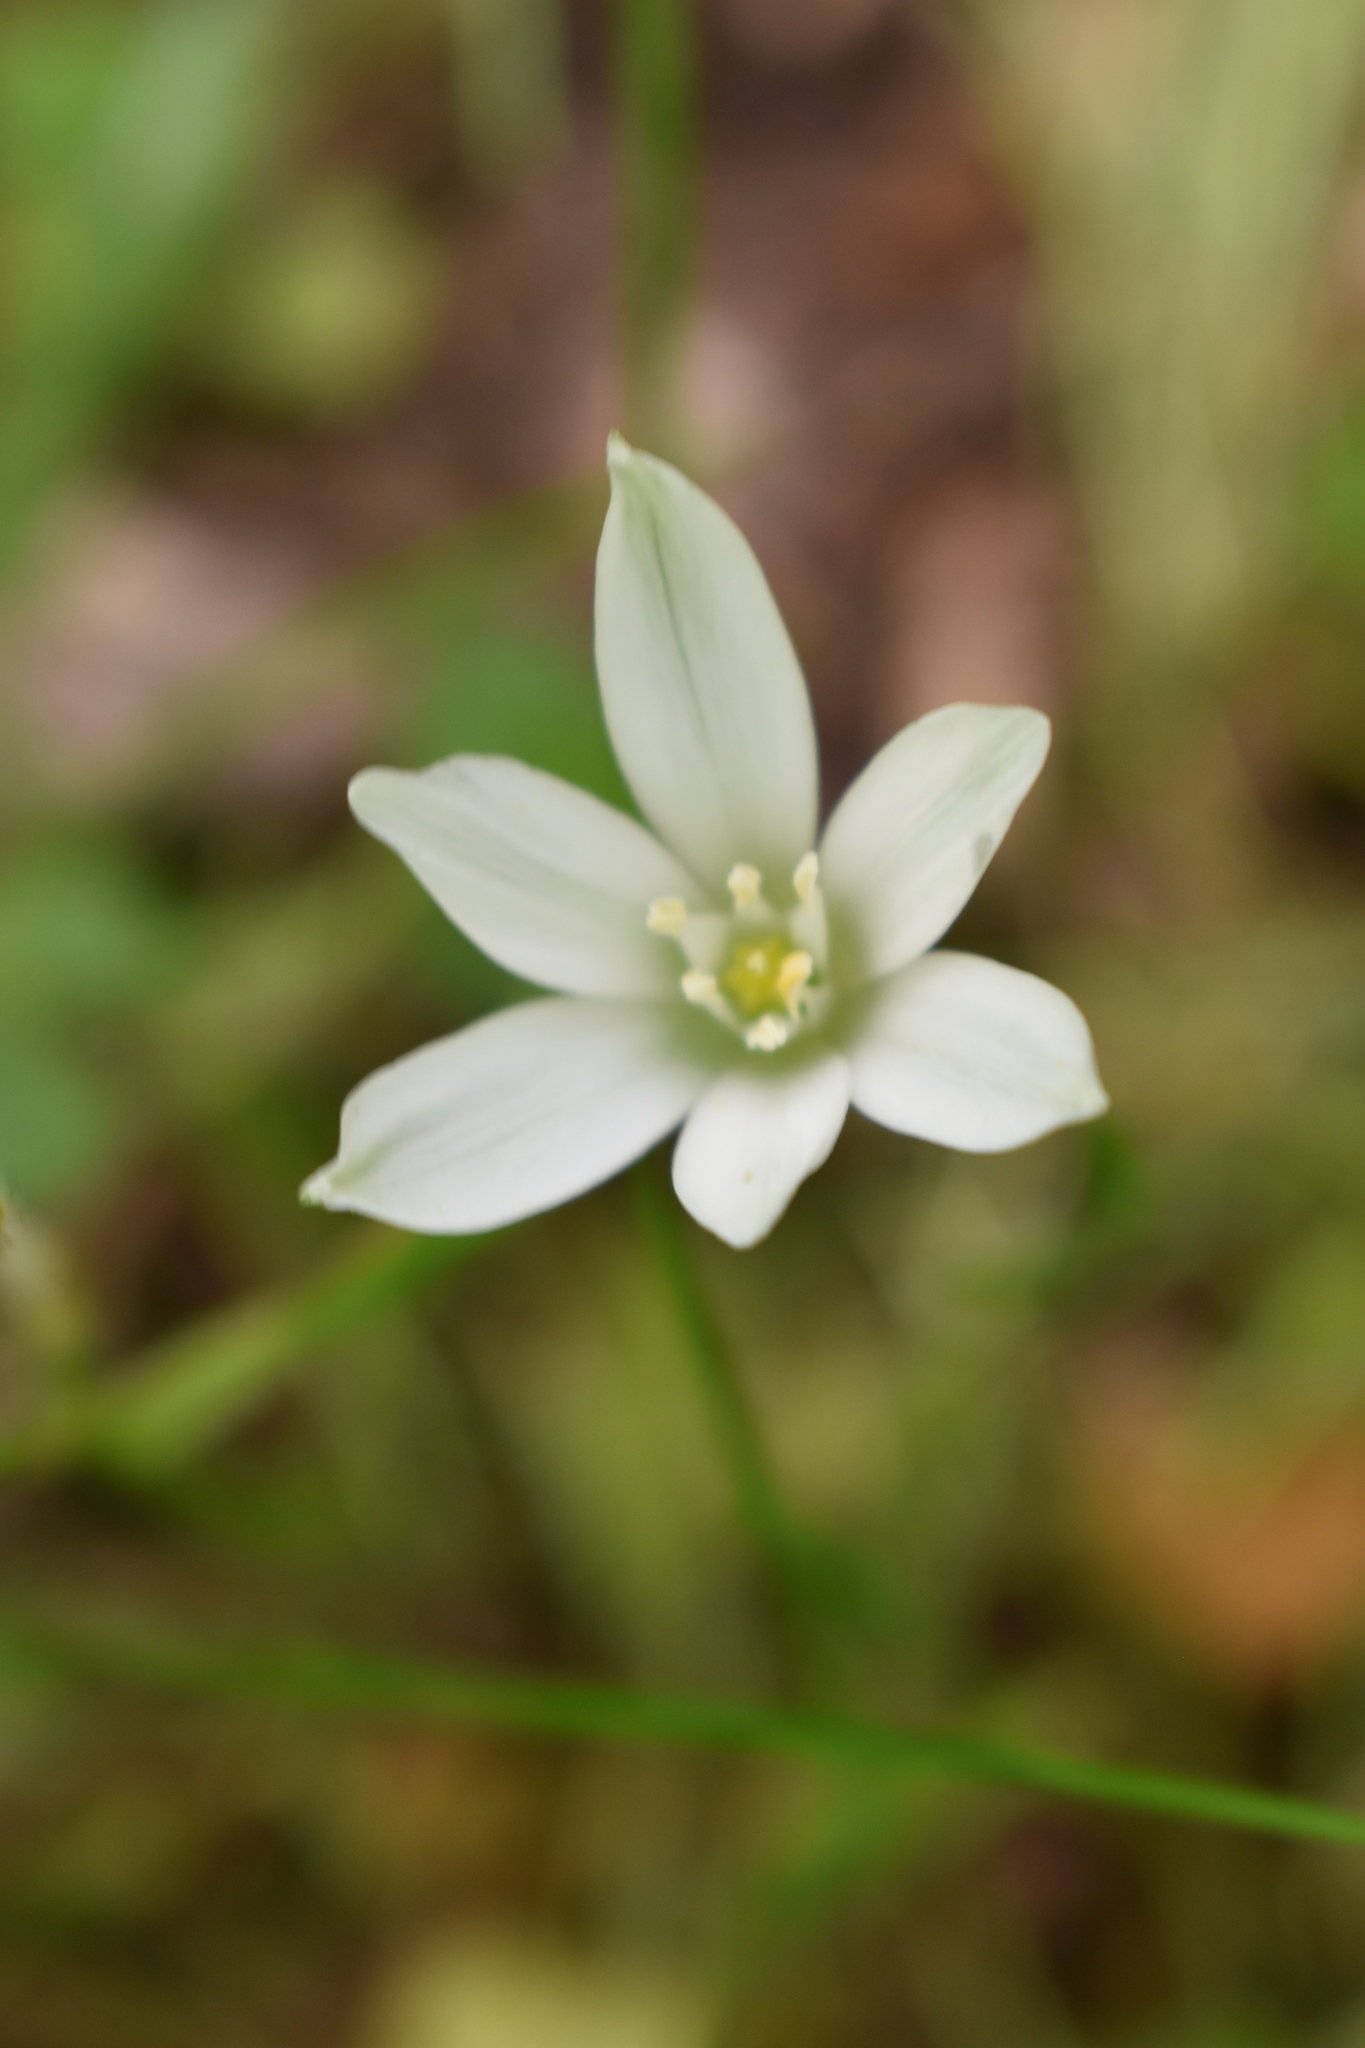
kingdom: Plantae
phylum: Tracheophyta
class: Liliopsida
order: Asparagales
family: Asparagaceae
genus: Ornithogalum
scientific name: Ornithogalum umbellatum
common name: Garden star-of-bethlehem
